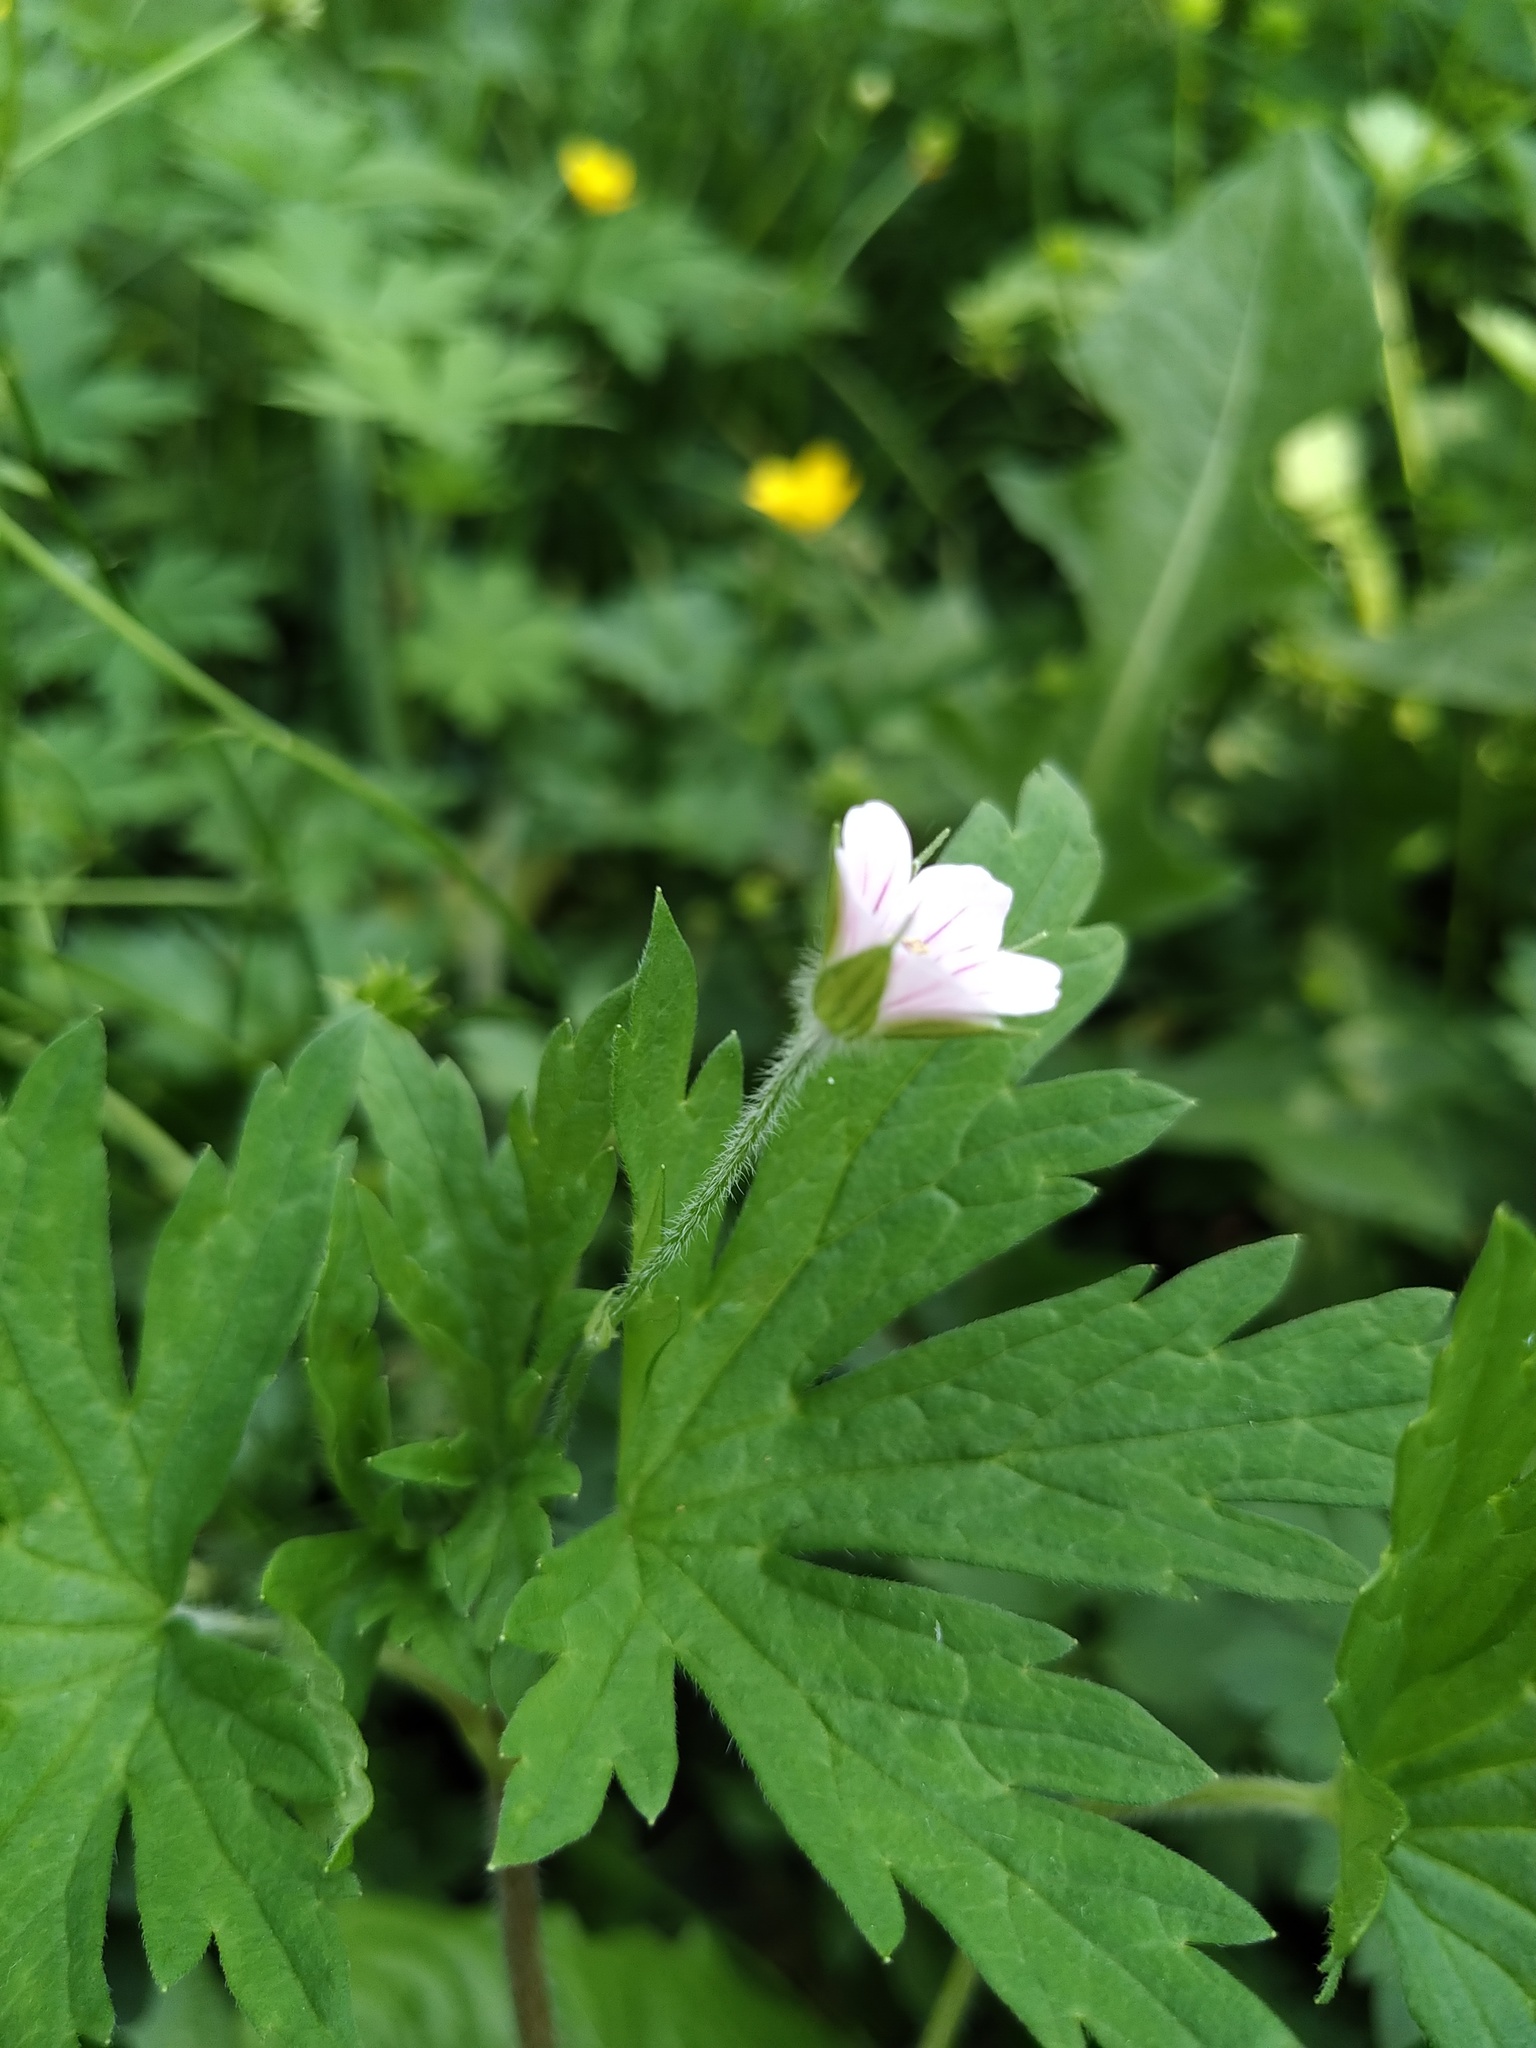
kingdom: Plantae
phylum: Tracheophyta
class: Magnoliopsida
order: Geraniales
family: Geraniaceae
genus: Geranium
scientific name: Geranium sibiricum
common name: Siberian crane's-bill
